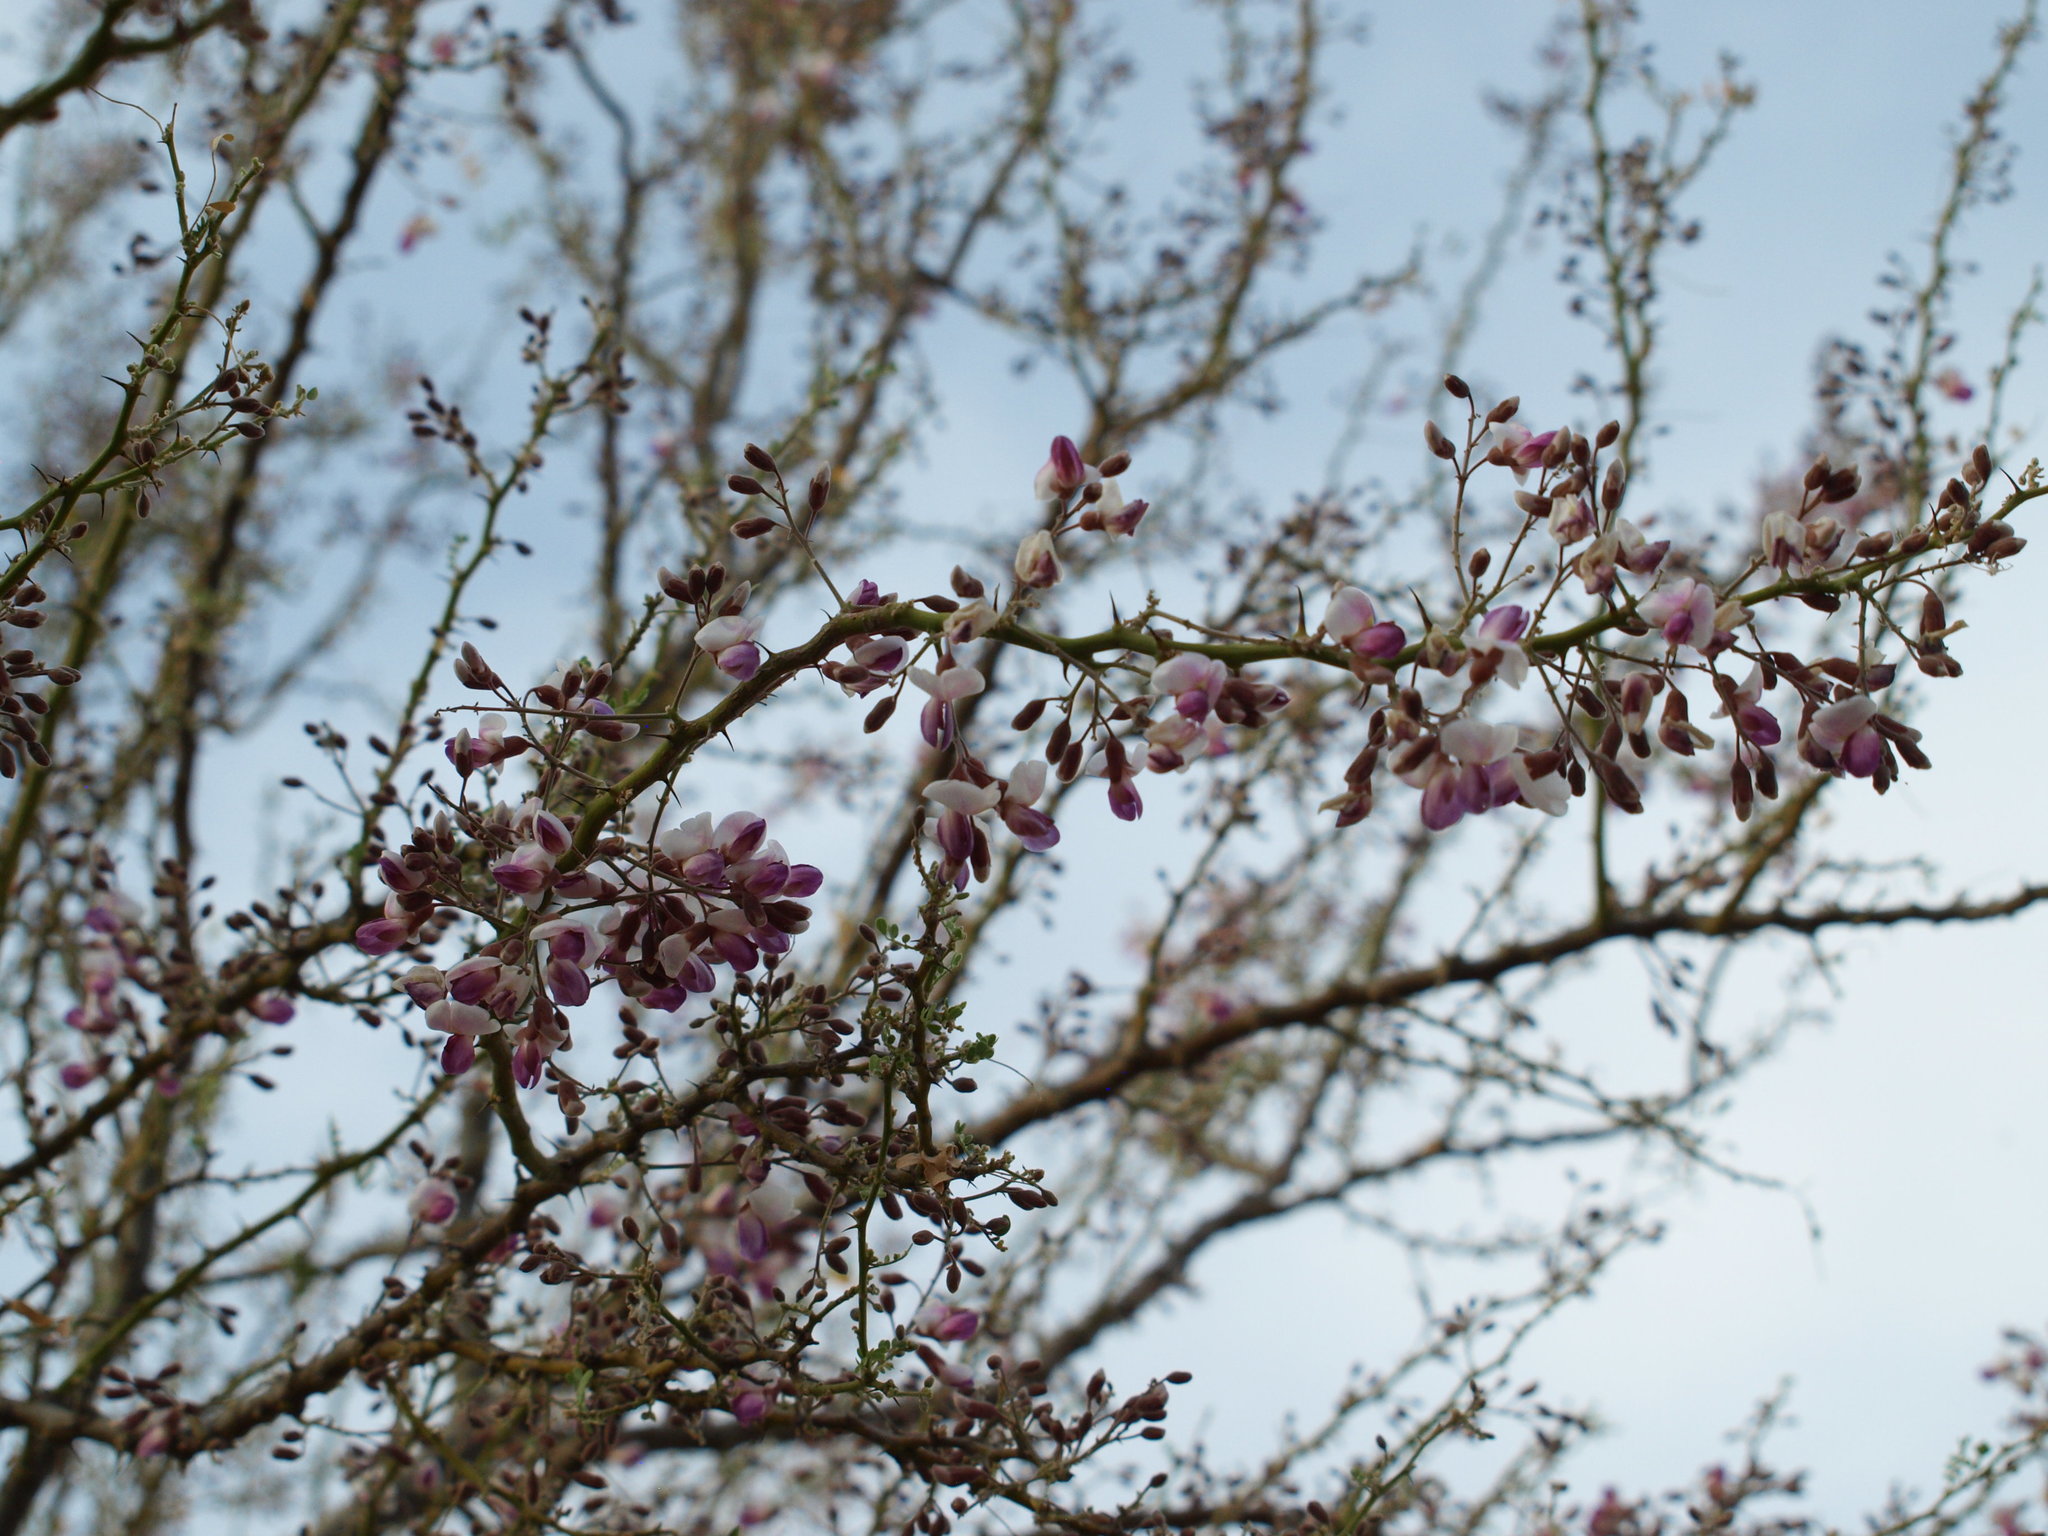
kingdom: Plantae
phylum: Tracheophyta
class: Magnoliopsida
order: Fabales
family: Fabaceae
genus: Olneya
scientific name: Olneya tesota
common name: Desert ironwood
